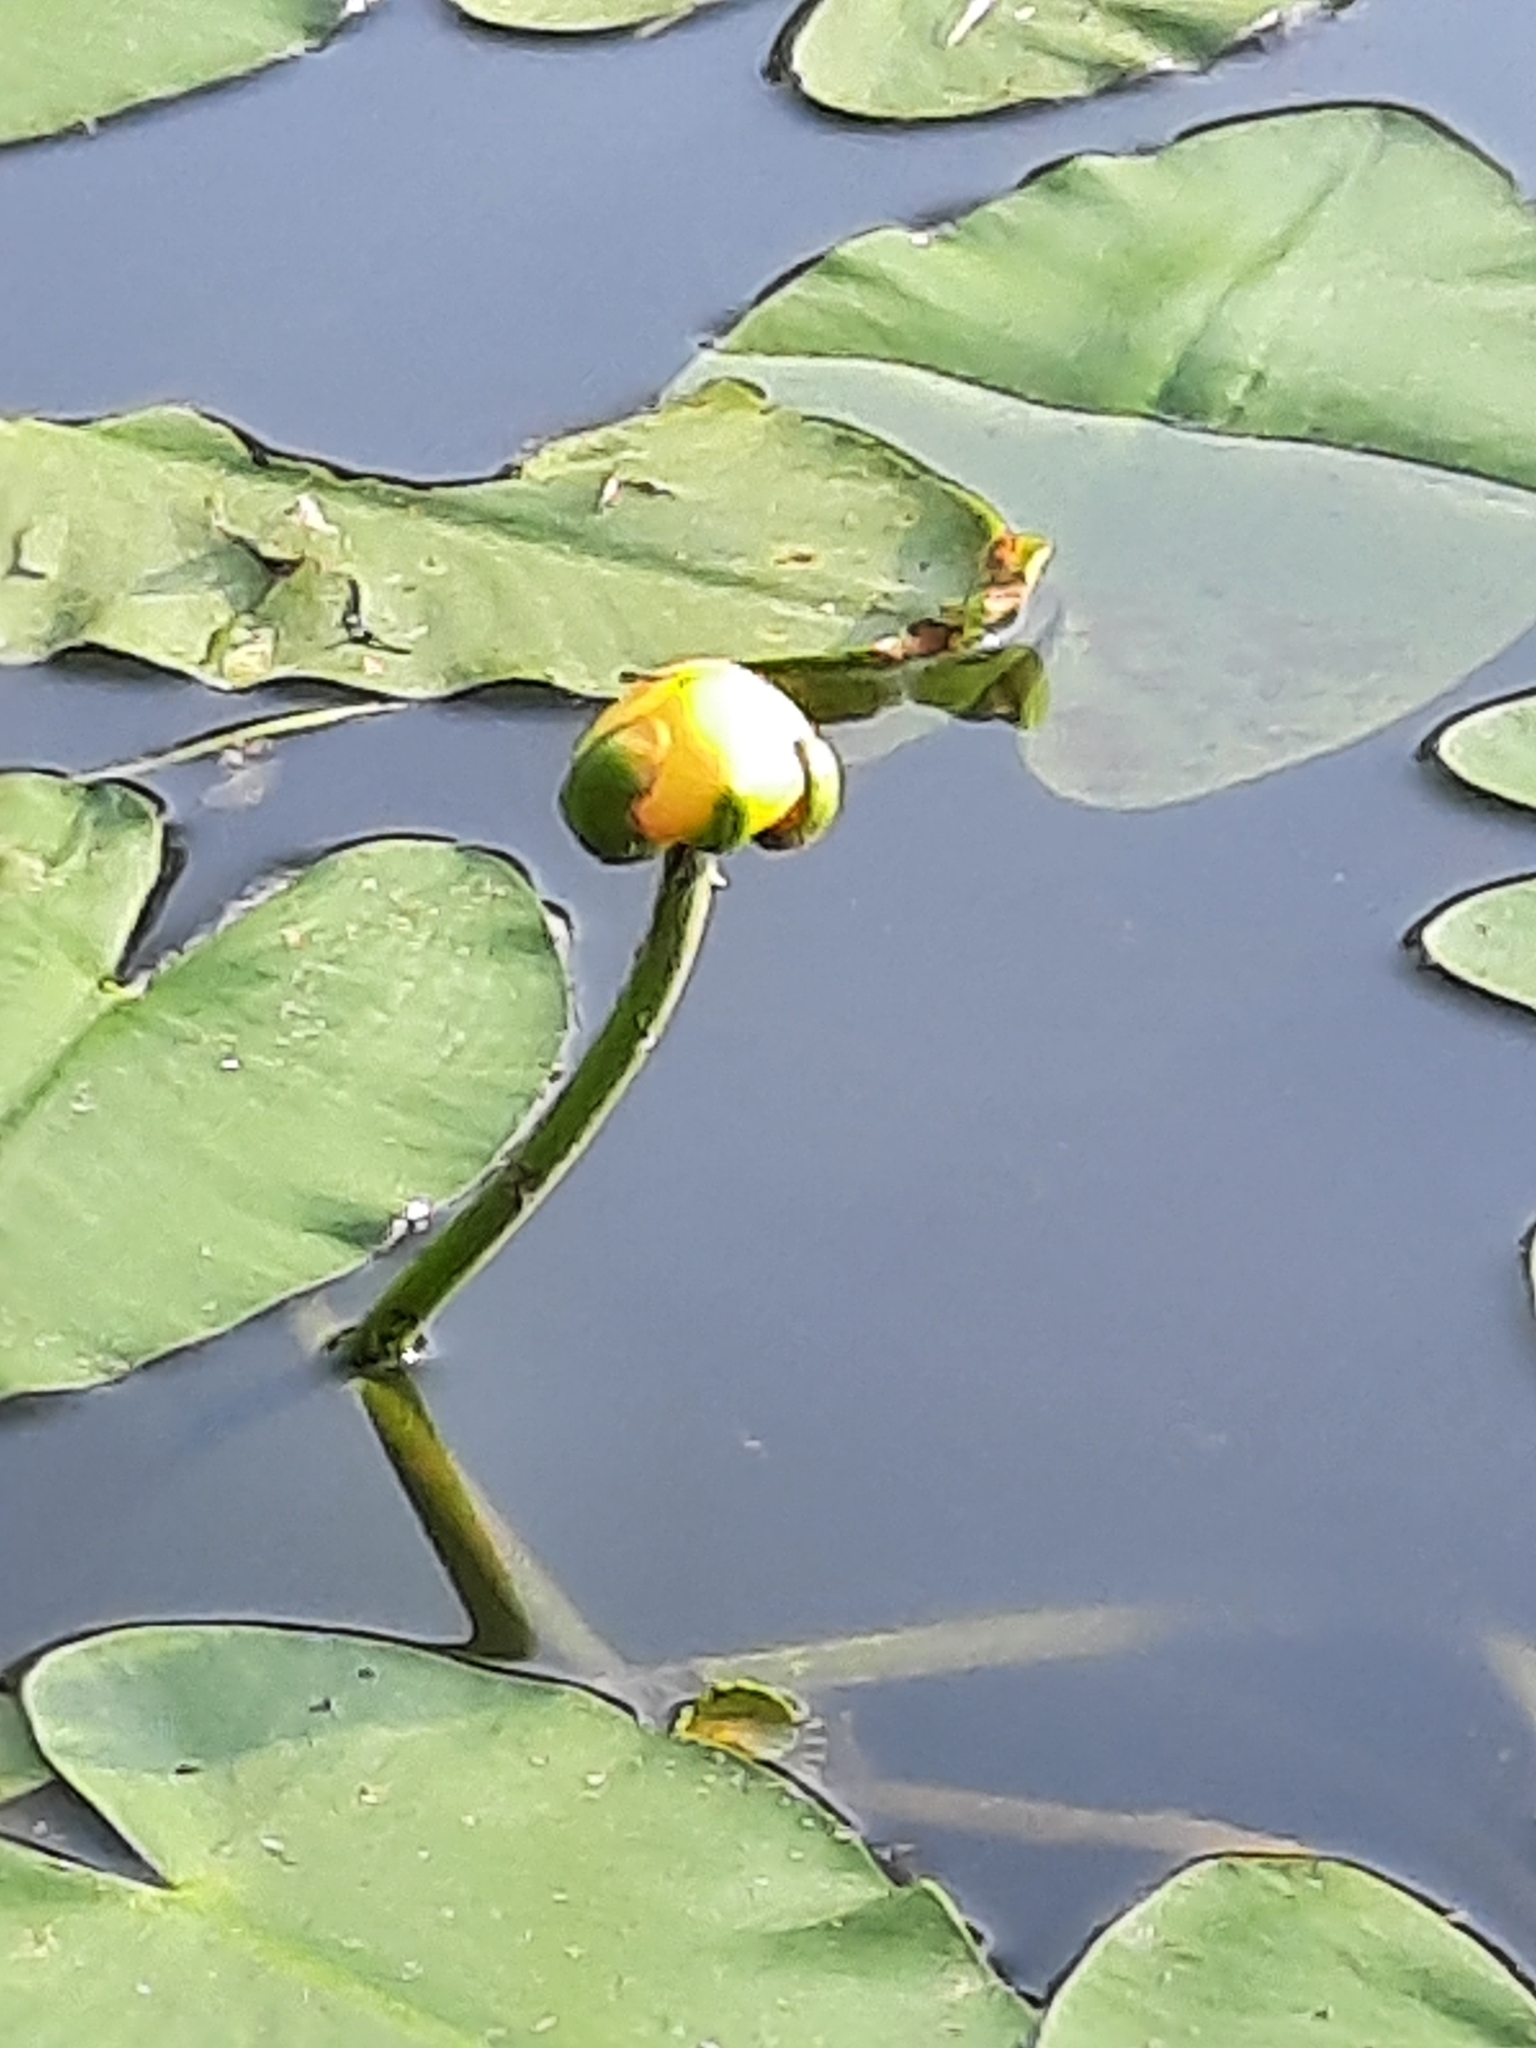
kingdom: Plantae
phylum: Tracheophyta
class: Magnoliopsida
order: Nymphaeales
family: Nymphaeaceae
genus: Nuphar
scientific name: Nuphar advena
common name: Spatter-dock
